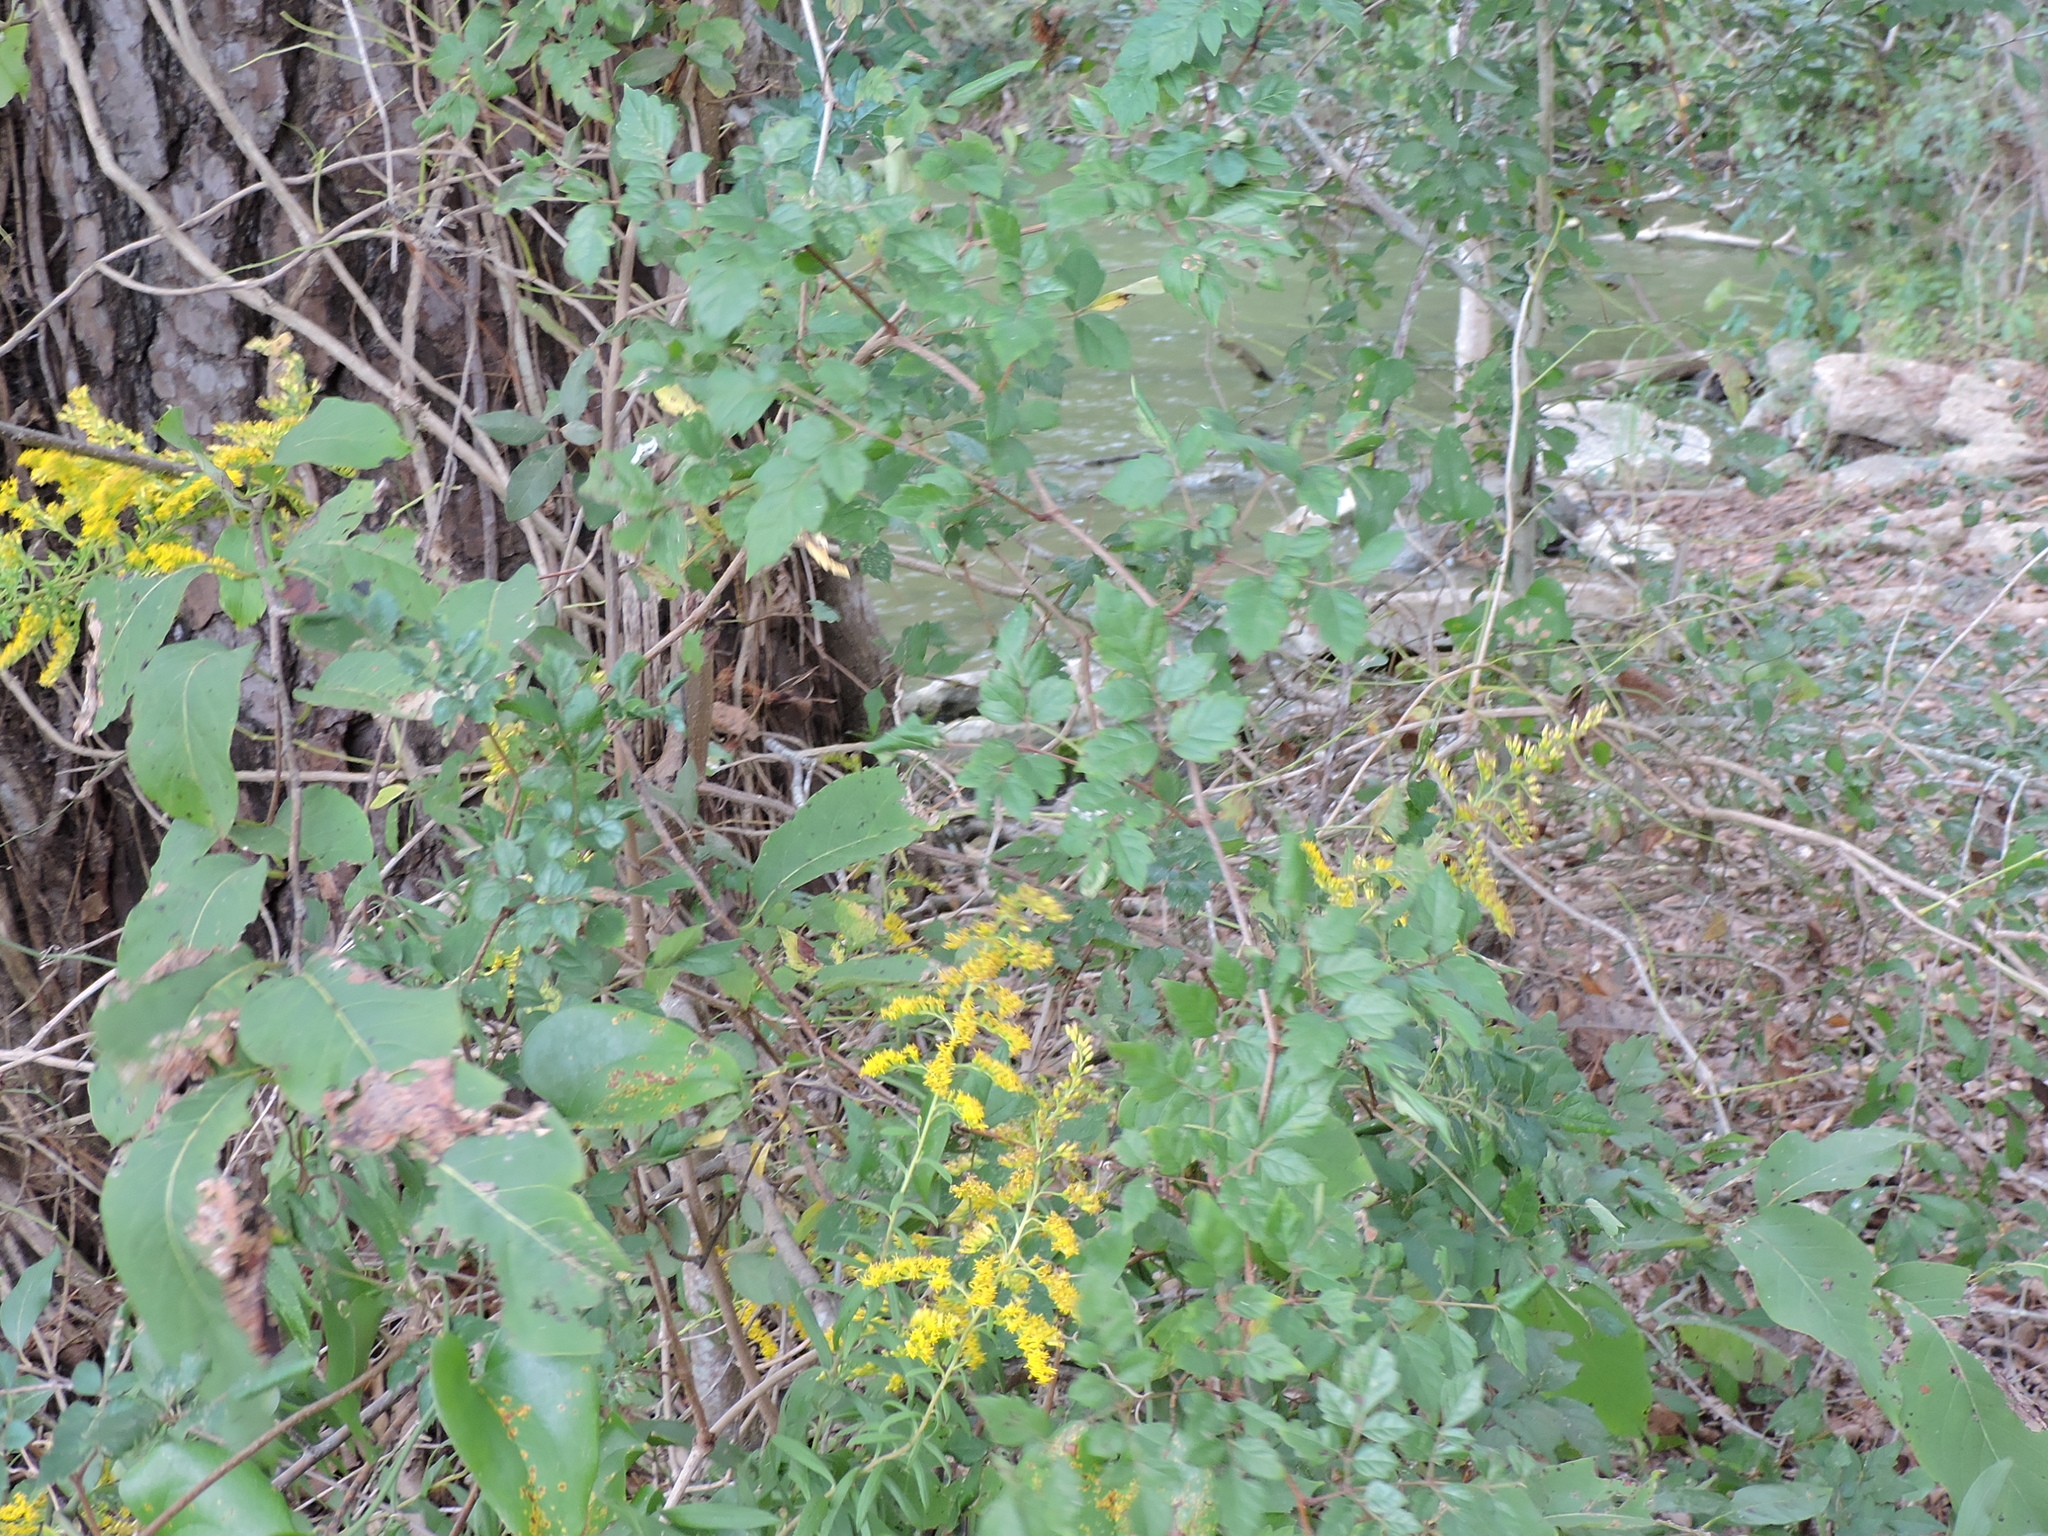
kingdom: Plantae
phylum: Tracheophyta
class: Magnoliopsida
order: Vitales
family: Vitaceae
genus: Nekemias
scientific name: Nekemias arborea
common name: Peppervine
